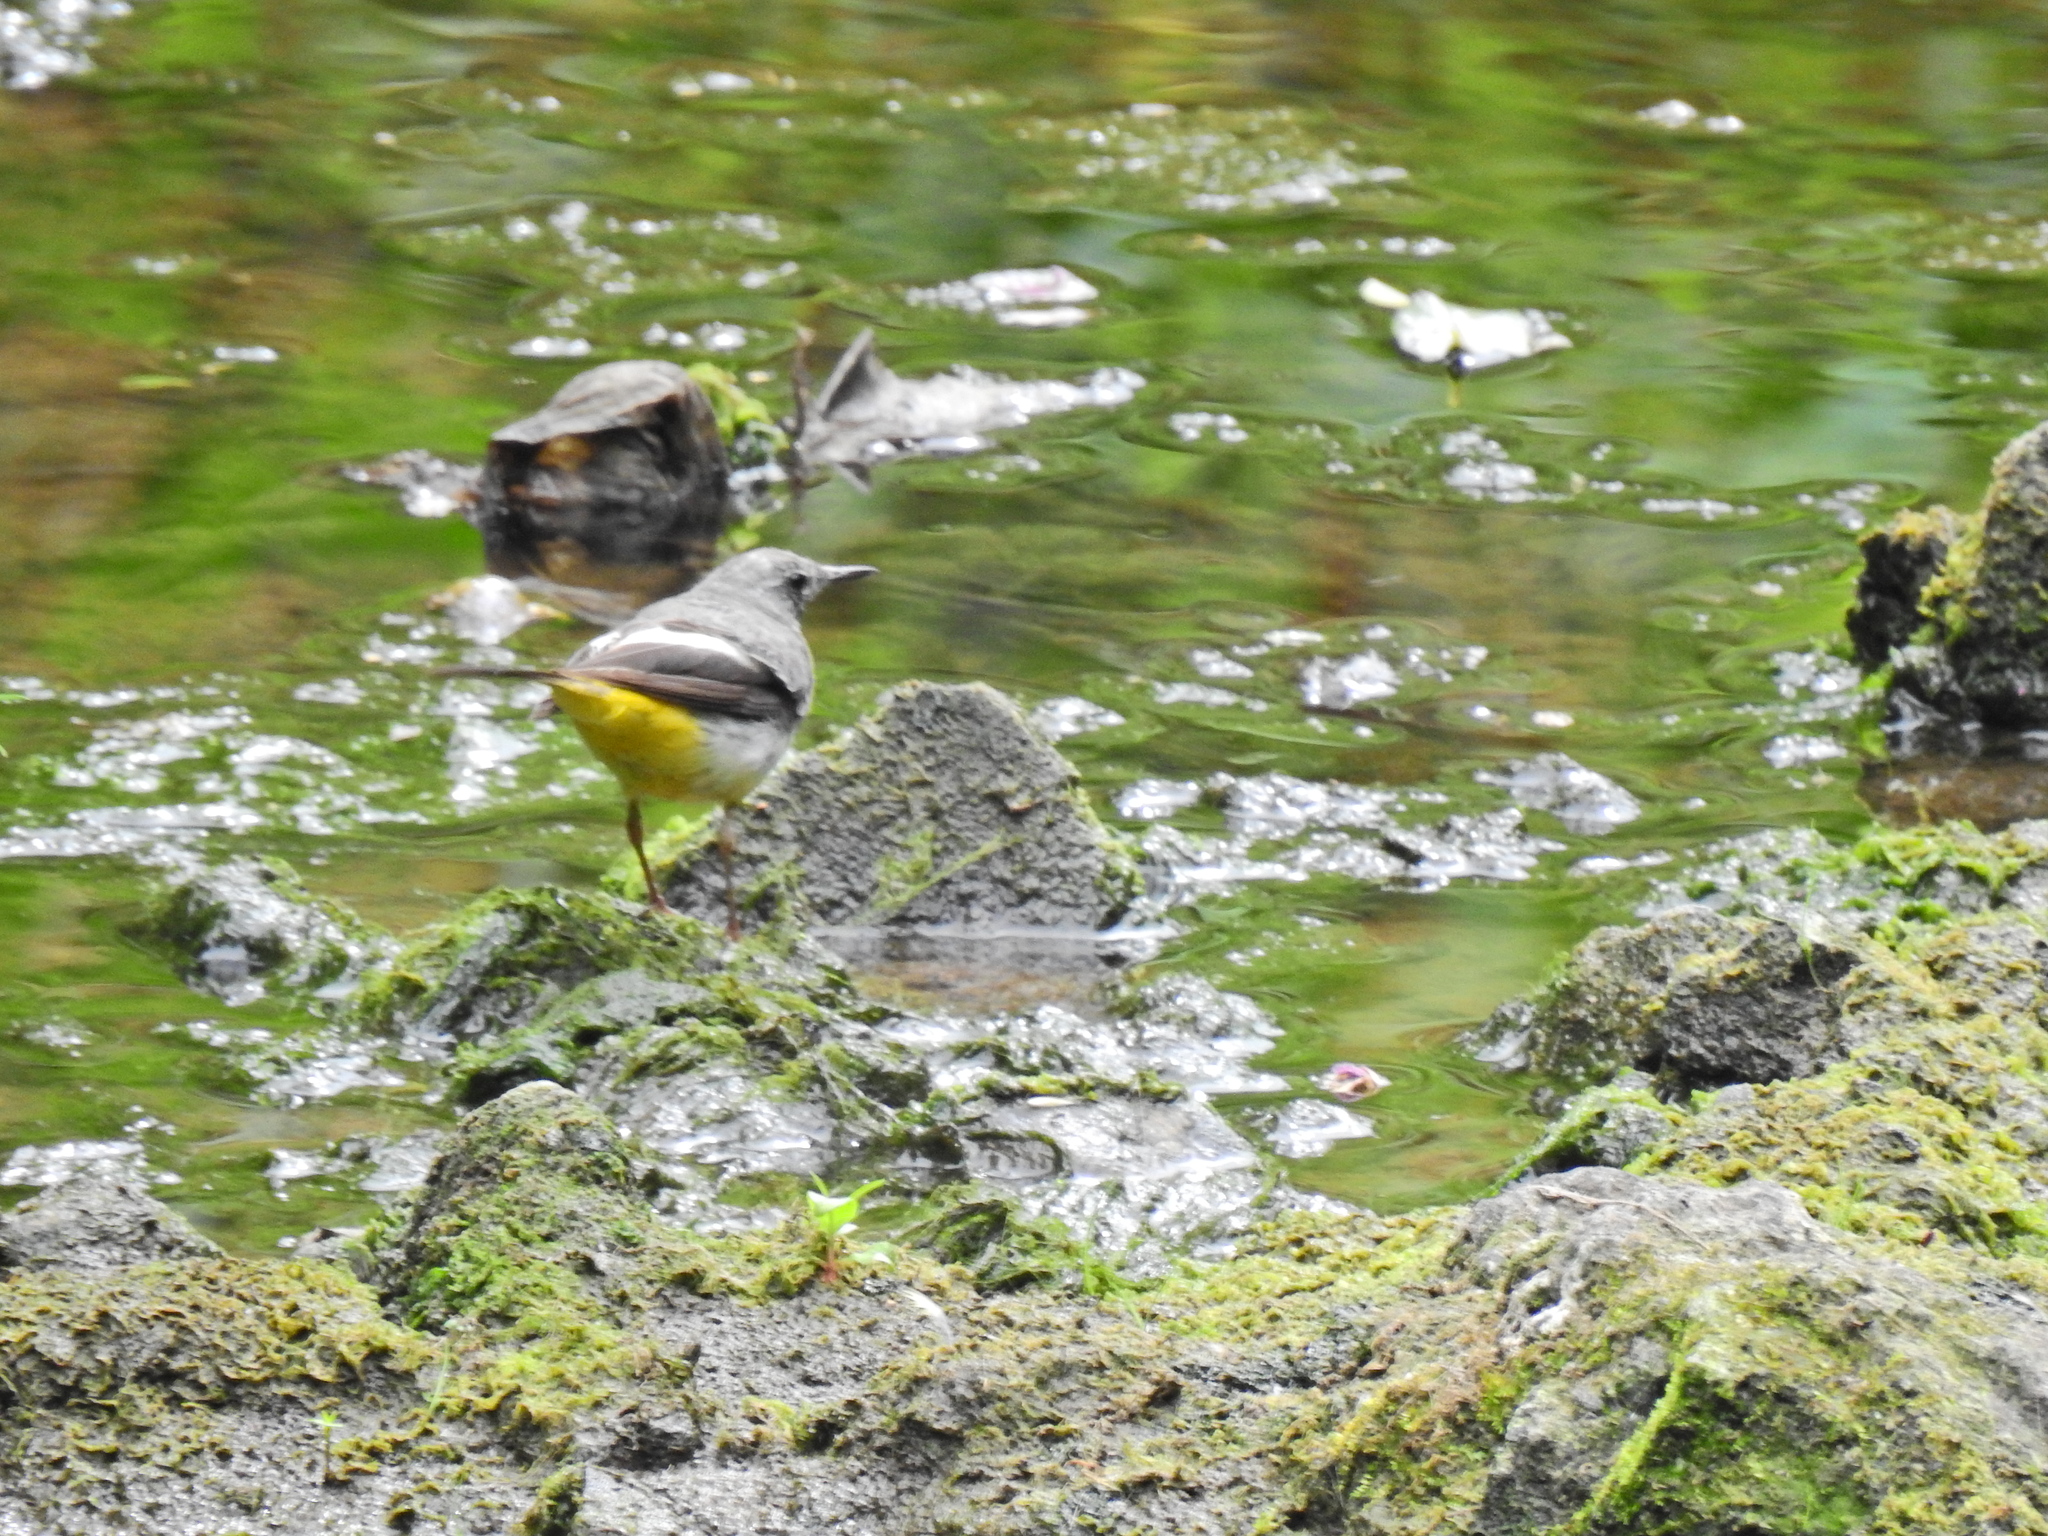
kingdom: Animalia
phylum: Chordata
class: Aves
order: Passeriformes
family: Motacillidae
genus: Motacilla
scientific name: Motacilla cinerea
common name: Grey wagtail
